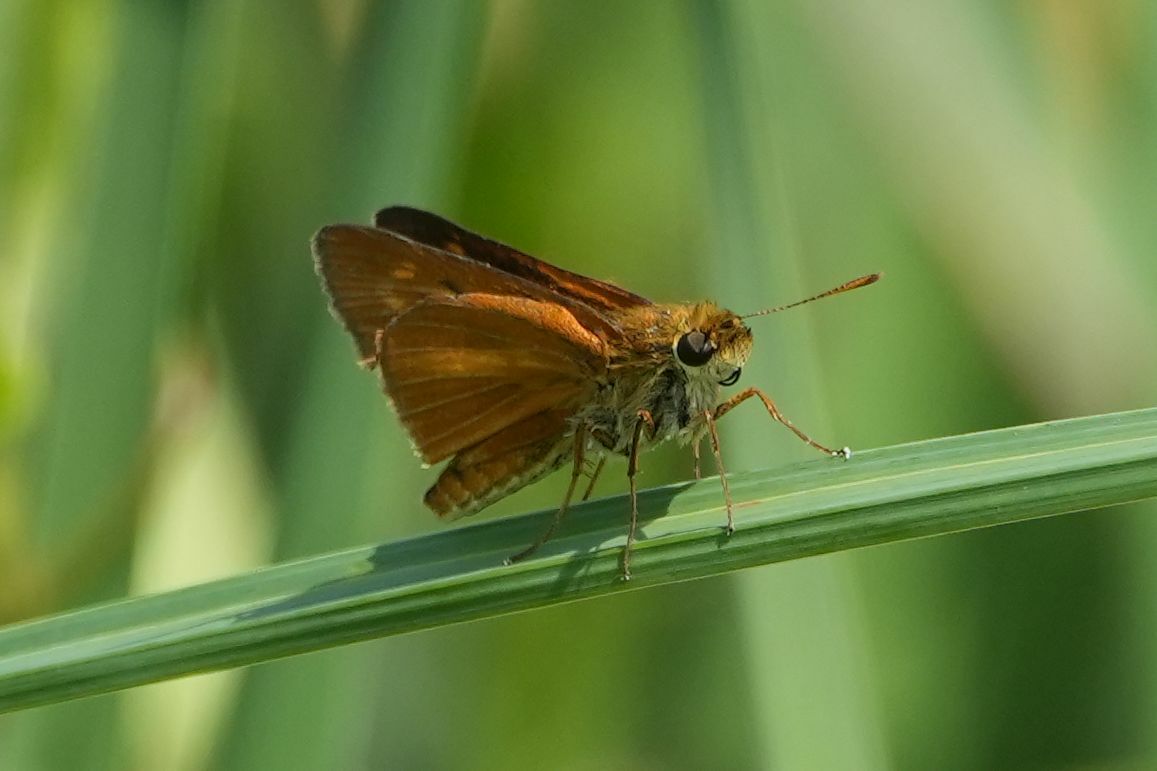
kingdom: Animalia
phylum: Arthropoda
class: Insecta
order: Lepidoptera
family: Hesperiidae
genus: Euphyes
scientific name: Euphyes dion
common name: Dion skipper
